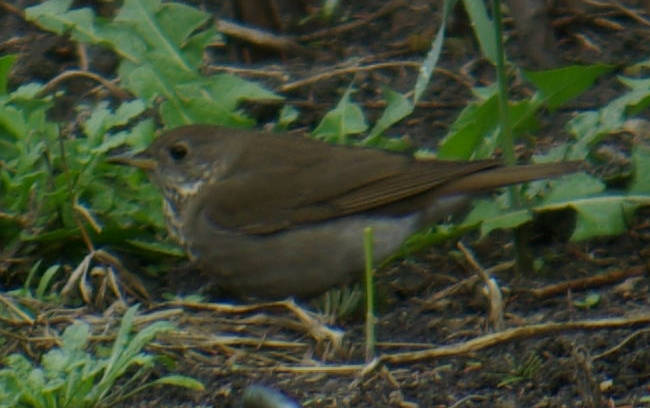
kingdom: Animalia
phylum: Chordata
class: Aves
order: Passeriformes
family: Turdidae
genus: Catharus
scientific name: Catharus minimus
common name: Grey-cheeked thrush
